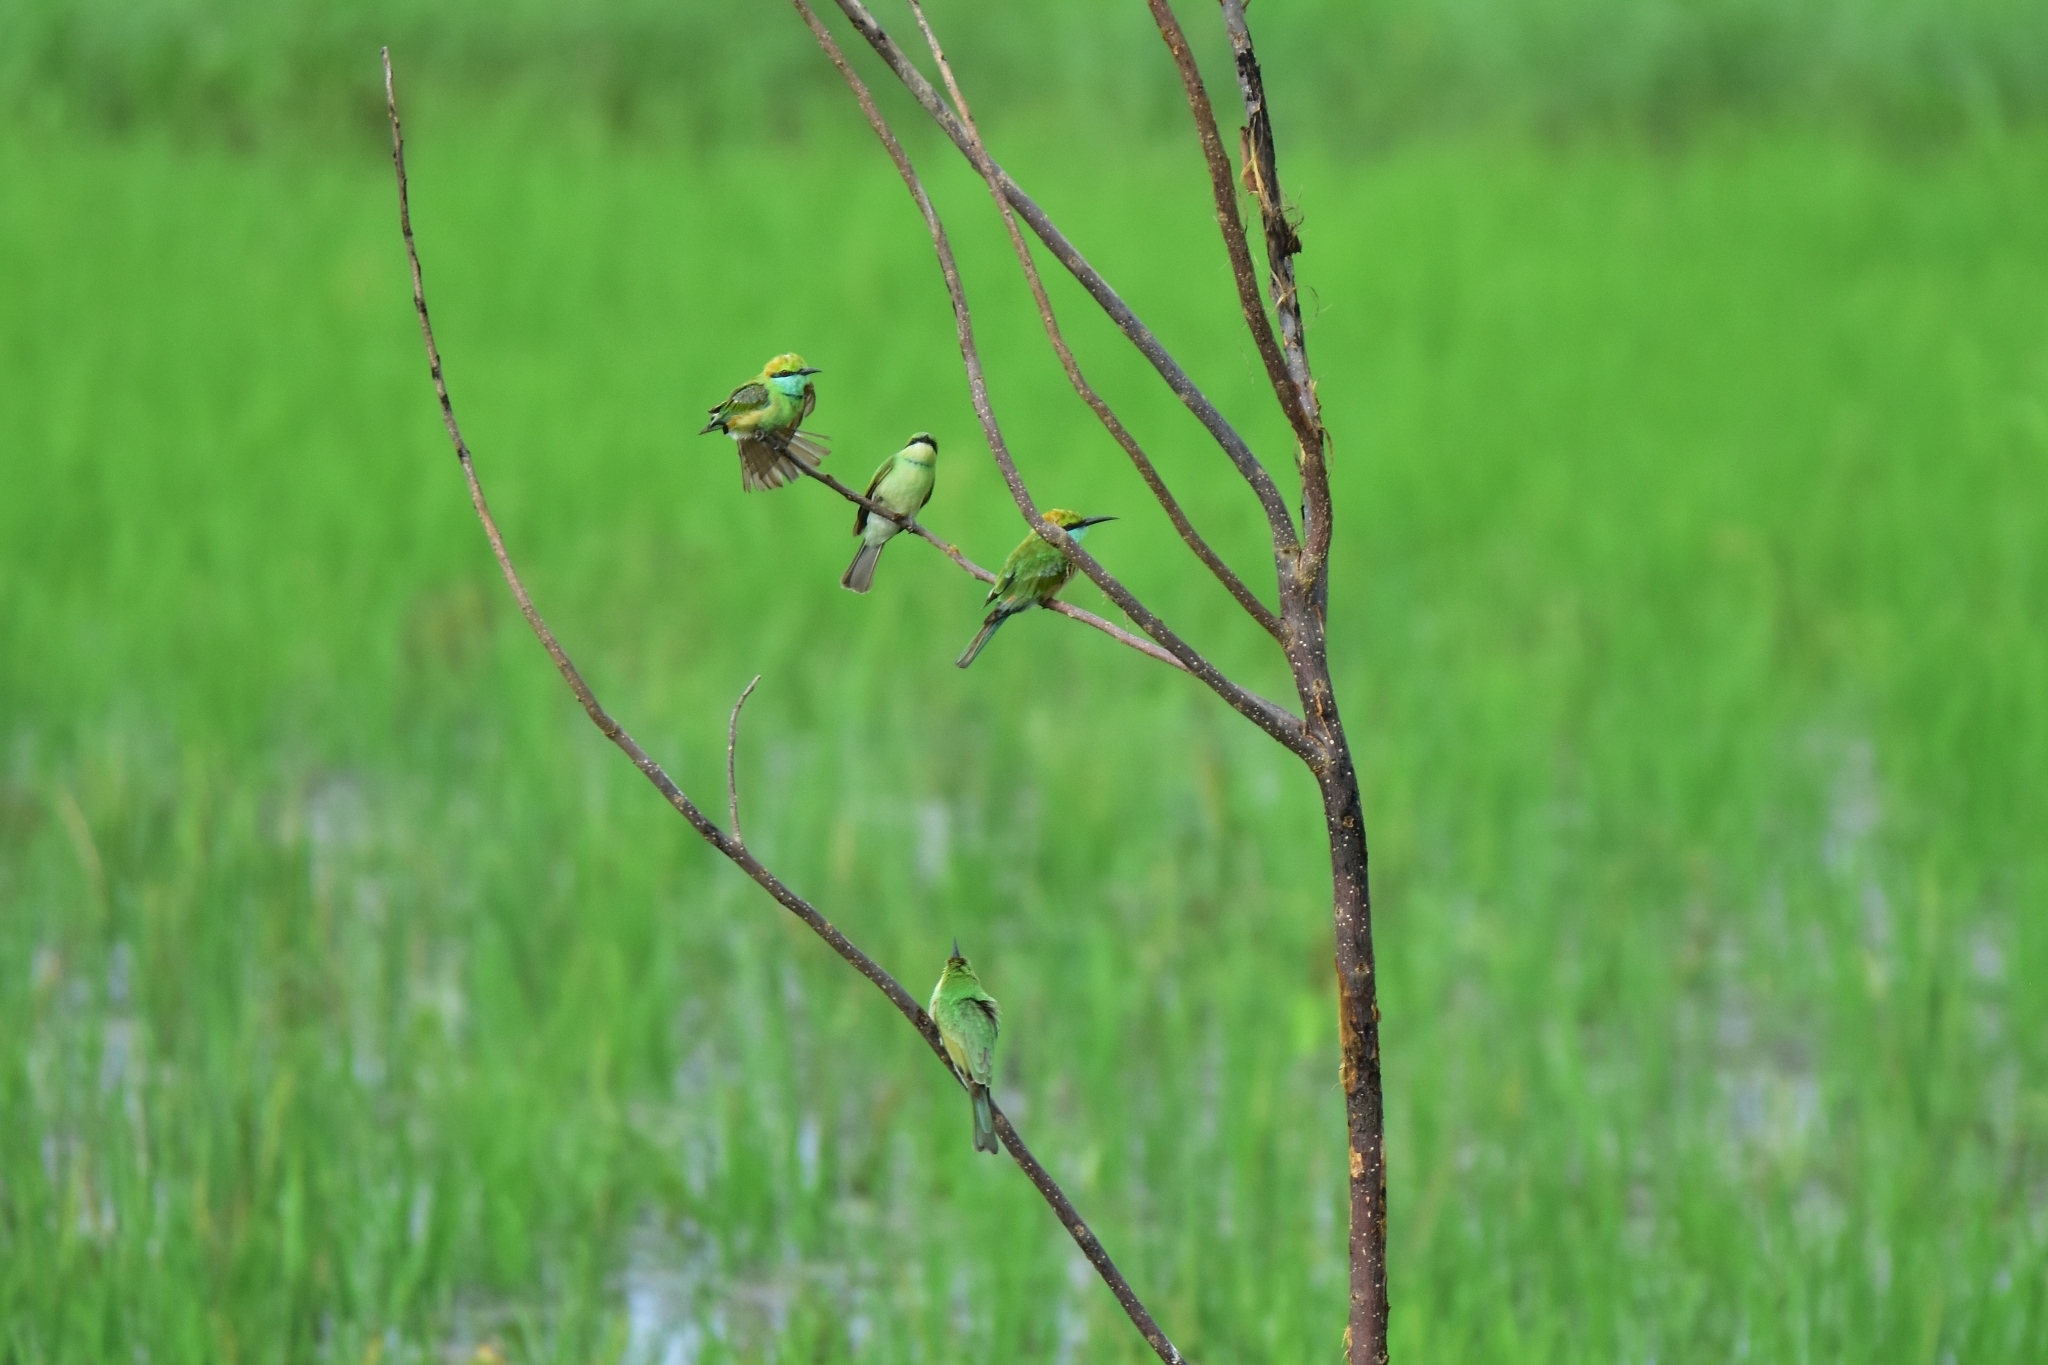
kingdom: Animalia
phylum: Chordata
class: Aves
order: Coraciiformes
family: Meropidae
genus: Merops
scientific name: Merops orientalis
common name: Green bee-eater
